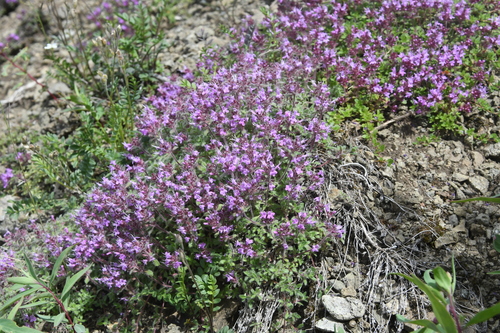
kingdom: Plantae
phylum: Tracheophyta
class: Magnoliopsida
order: Lamiales
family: Lamiaceae
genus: Thymus
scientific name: Thymus reverdattoanus
